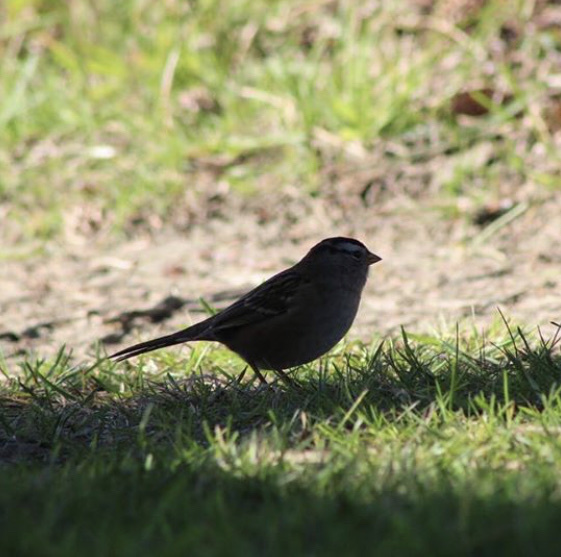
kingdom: Animalia
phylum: Chordata
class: Aves
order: Passeriformes
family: Passerellidae
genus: Zonotrichia
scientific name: Zonotrichia leucophrys
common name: White-crowned sparrow
